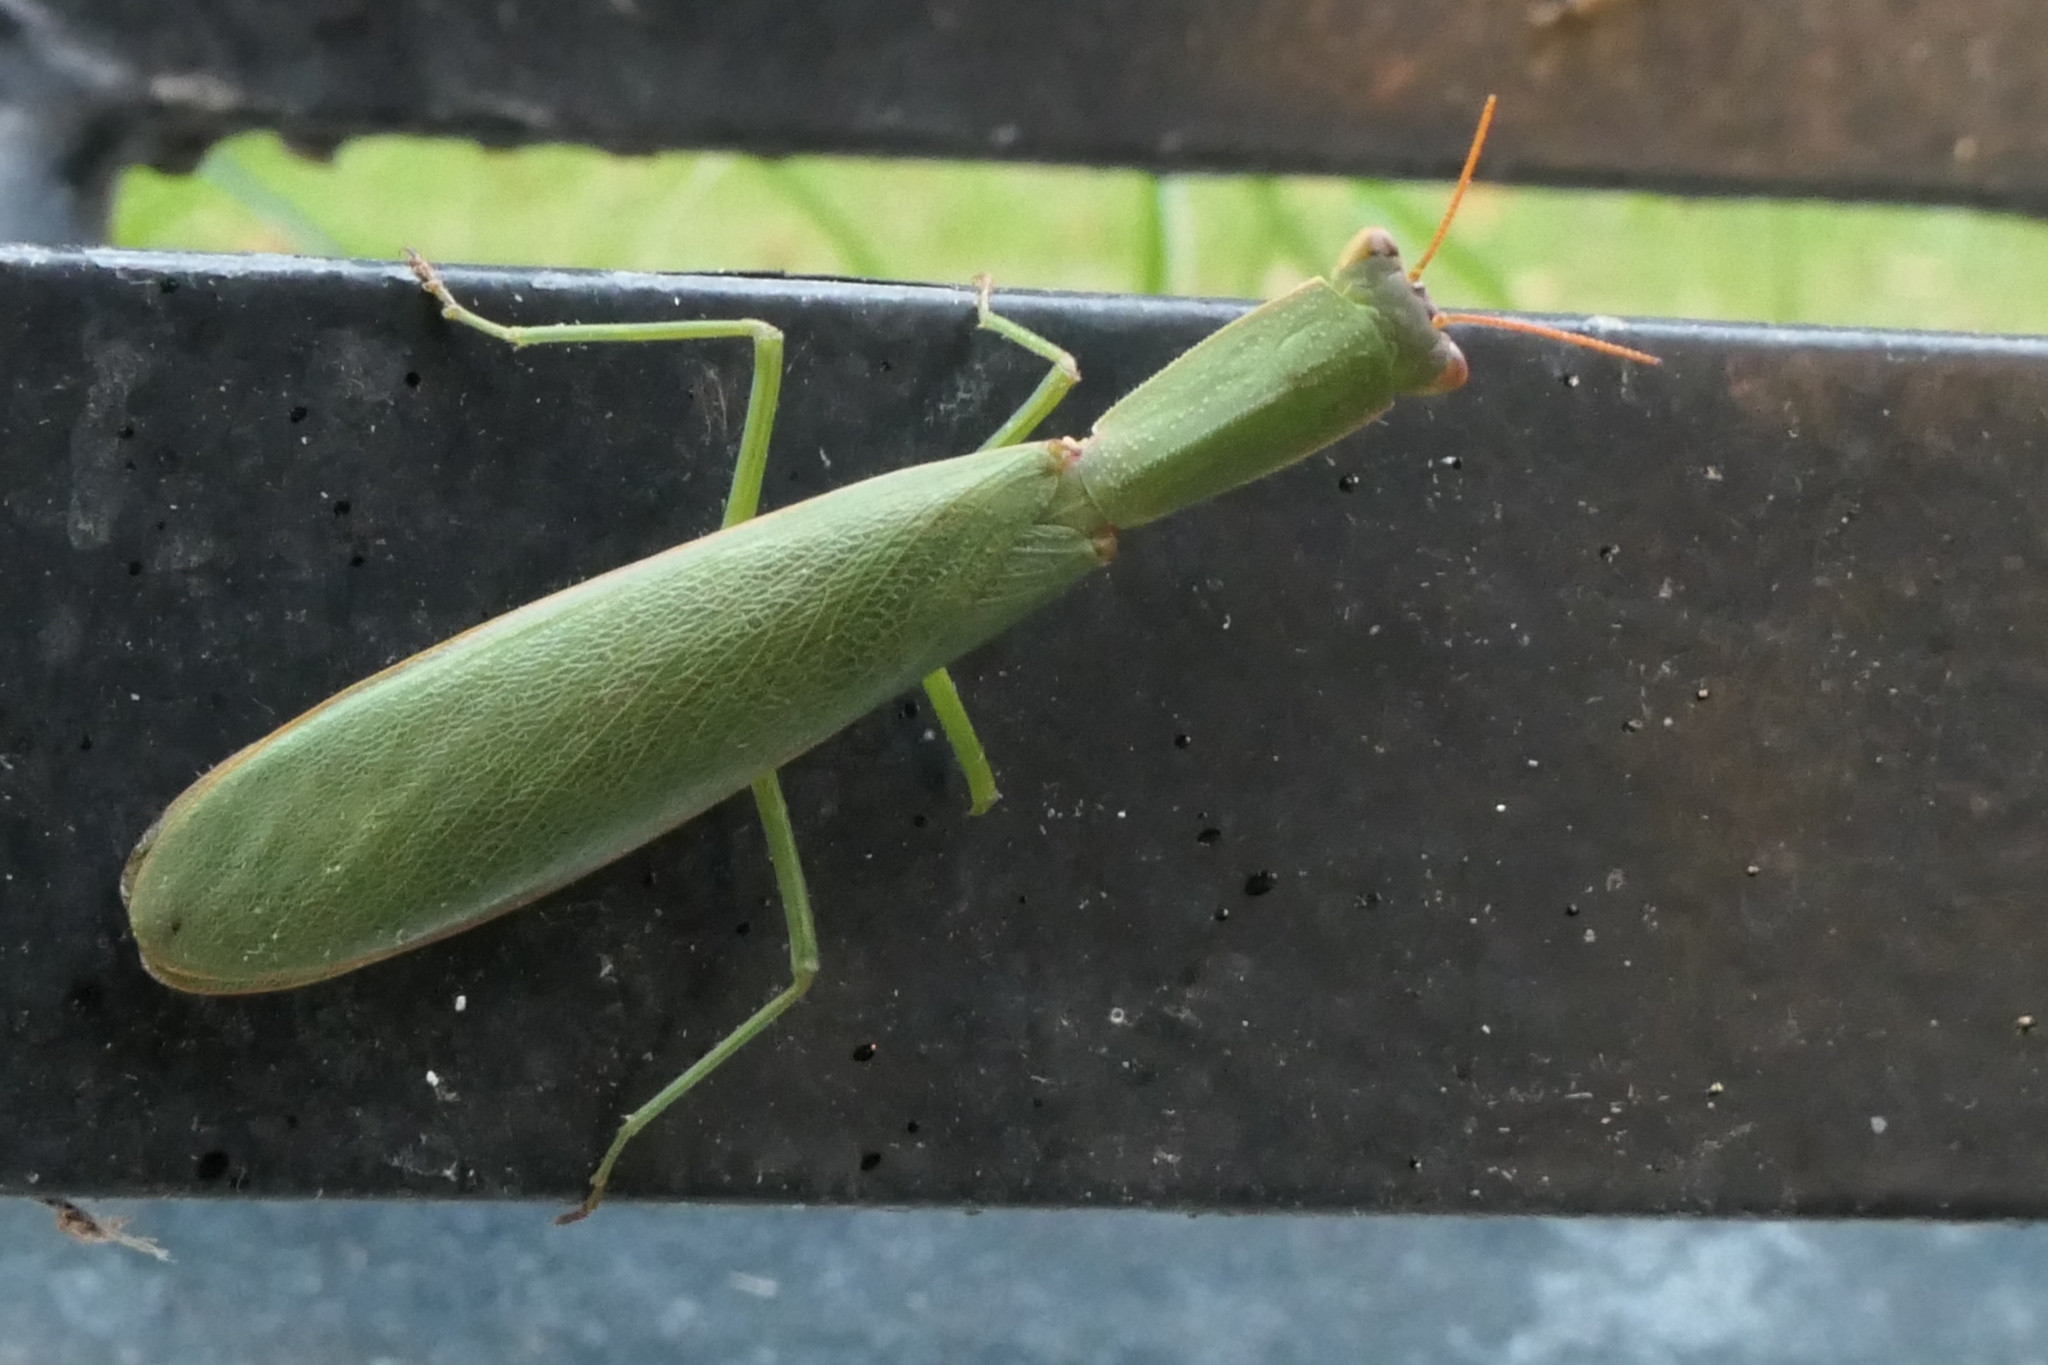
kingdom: Animalia
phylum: Arthropoda
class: Insecta
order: Mantodea
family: Mantidae
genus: Orthodera
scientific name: Orthodera novaezealandiae
